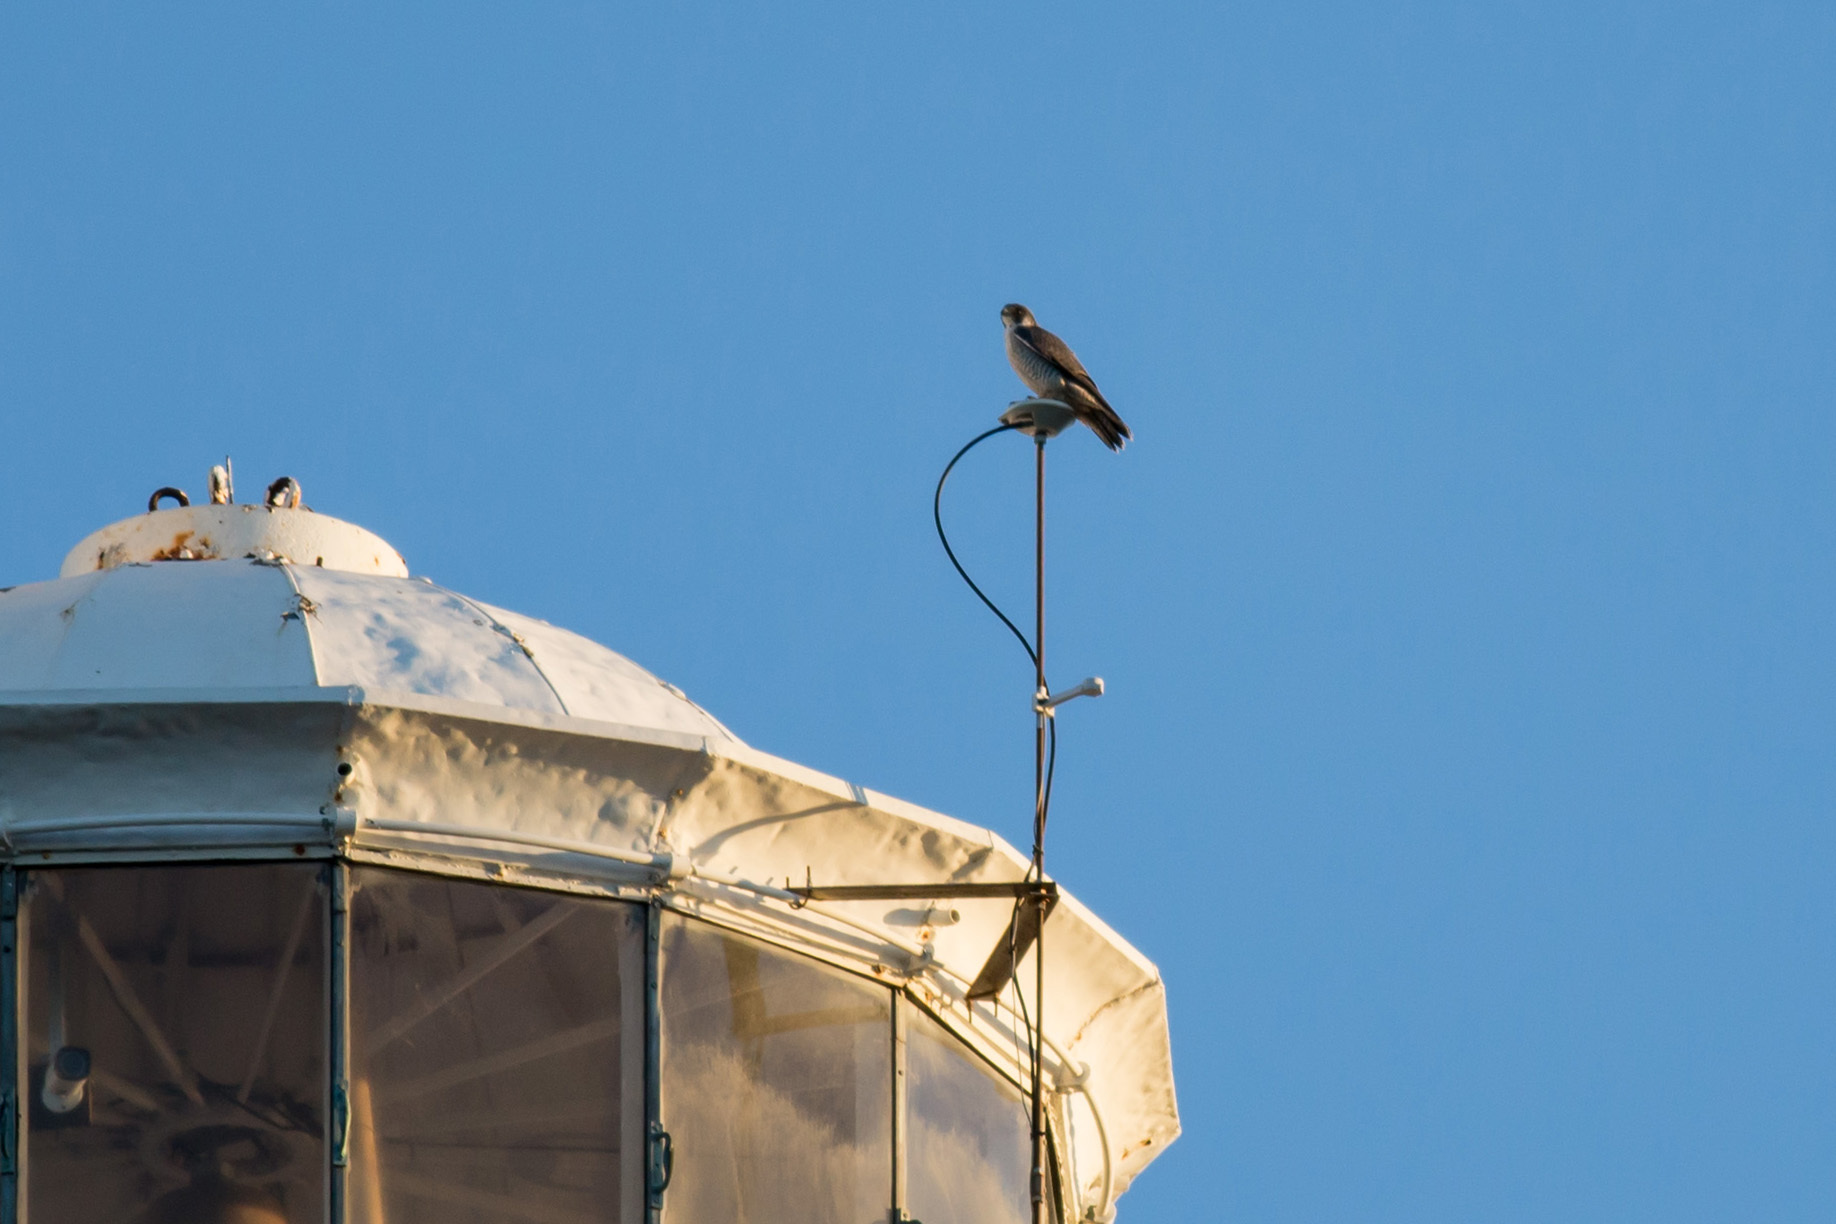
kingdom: Animalia
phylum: Chordata
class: Aves
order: Falconiformes
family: Falconidae
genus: Falco
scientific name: Falco peregrinus
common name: Peregrine falcon
